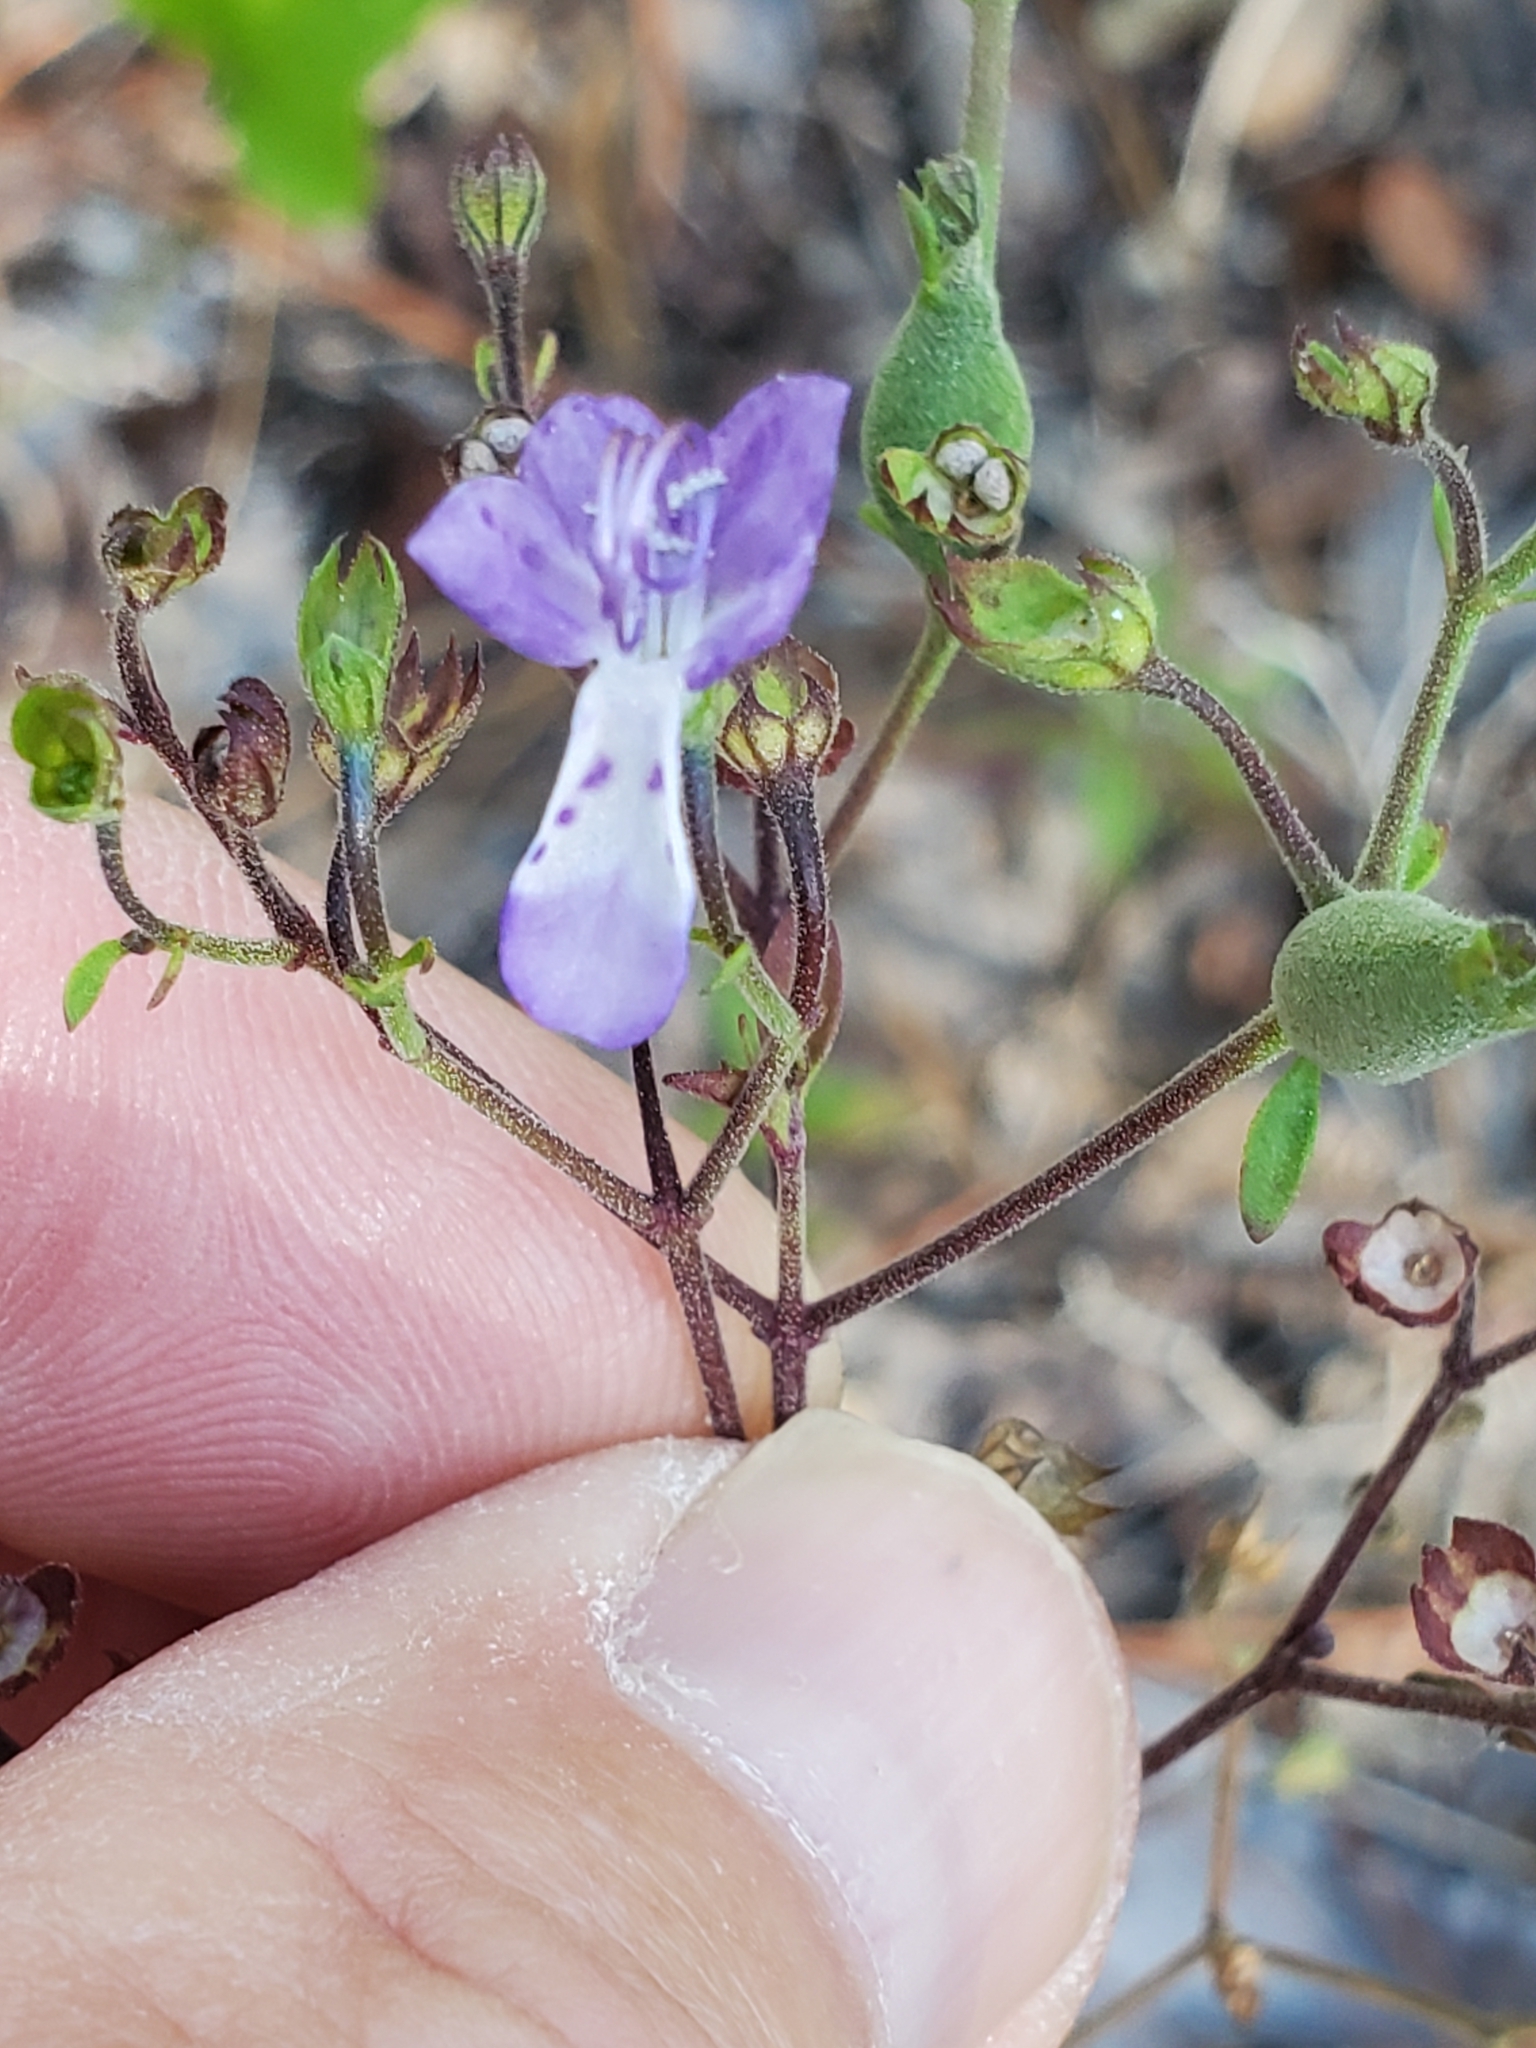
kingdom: Plantae
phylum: Tracheophyta
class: Magnoliopsida
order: Lamiales
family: Lamiaceae
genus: Trichostema
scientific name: Trichostema fruticosum
